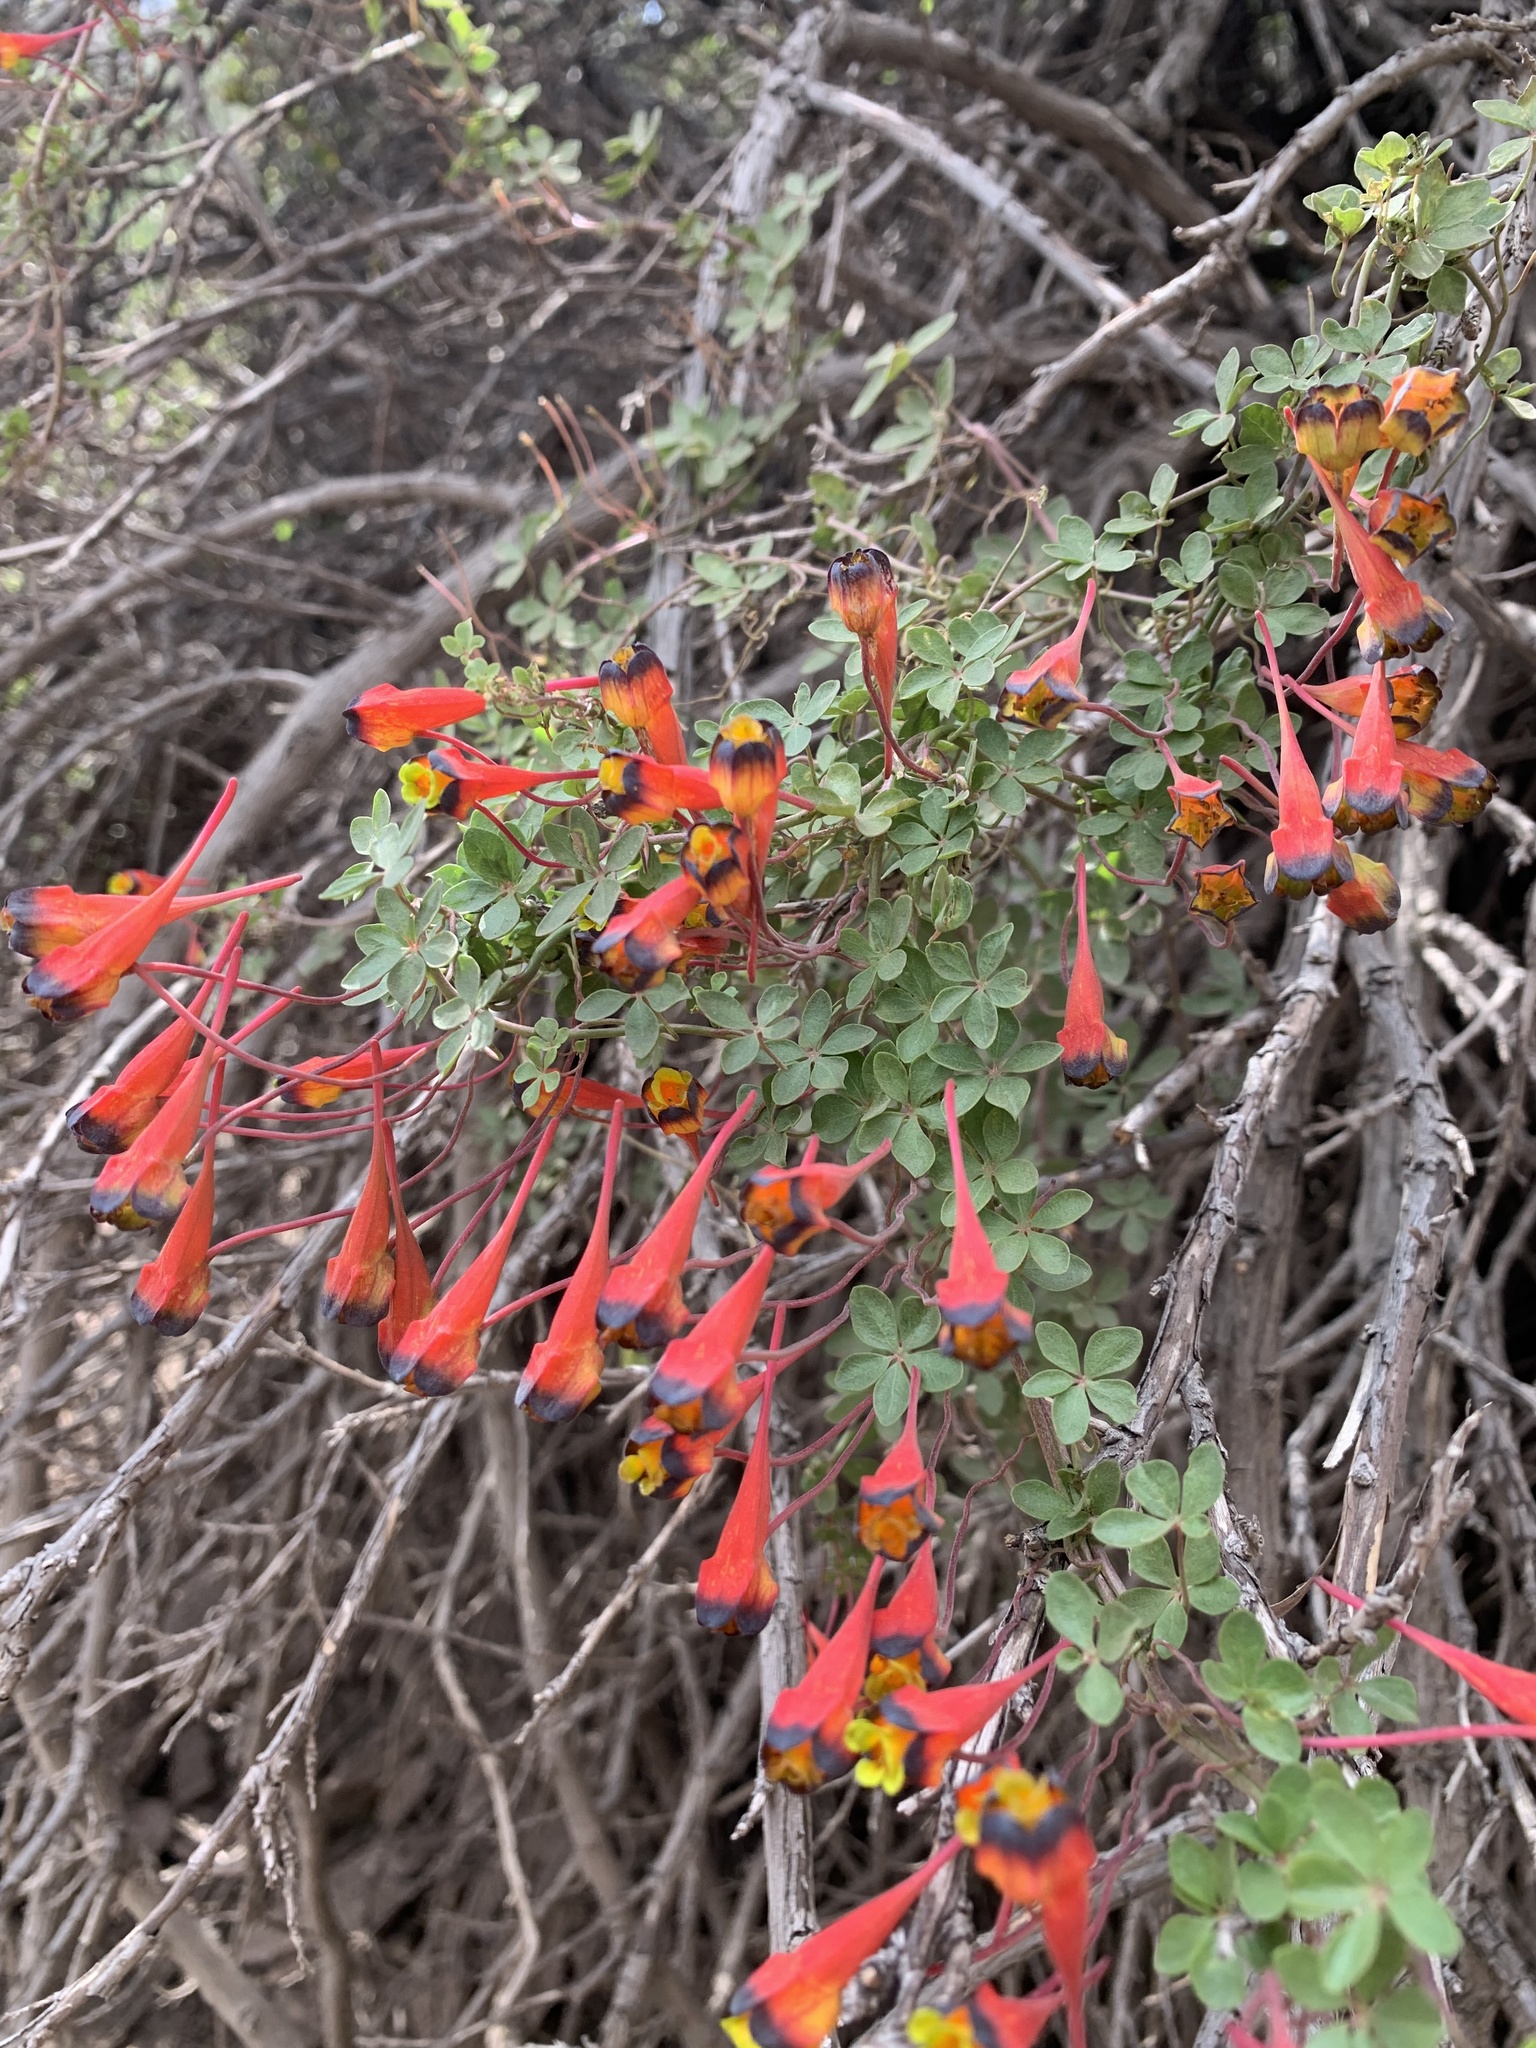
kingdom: Plantae
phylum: Tracheophyta
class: Magnoliopsida
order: Brassicales
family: Tropaeolaceae
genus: Tropaeolum
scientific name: Tropaeolum tricolor
